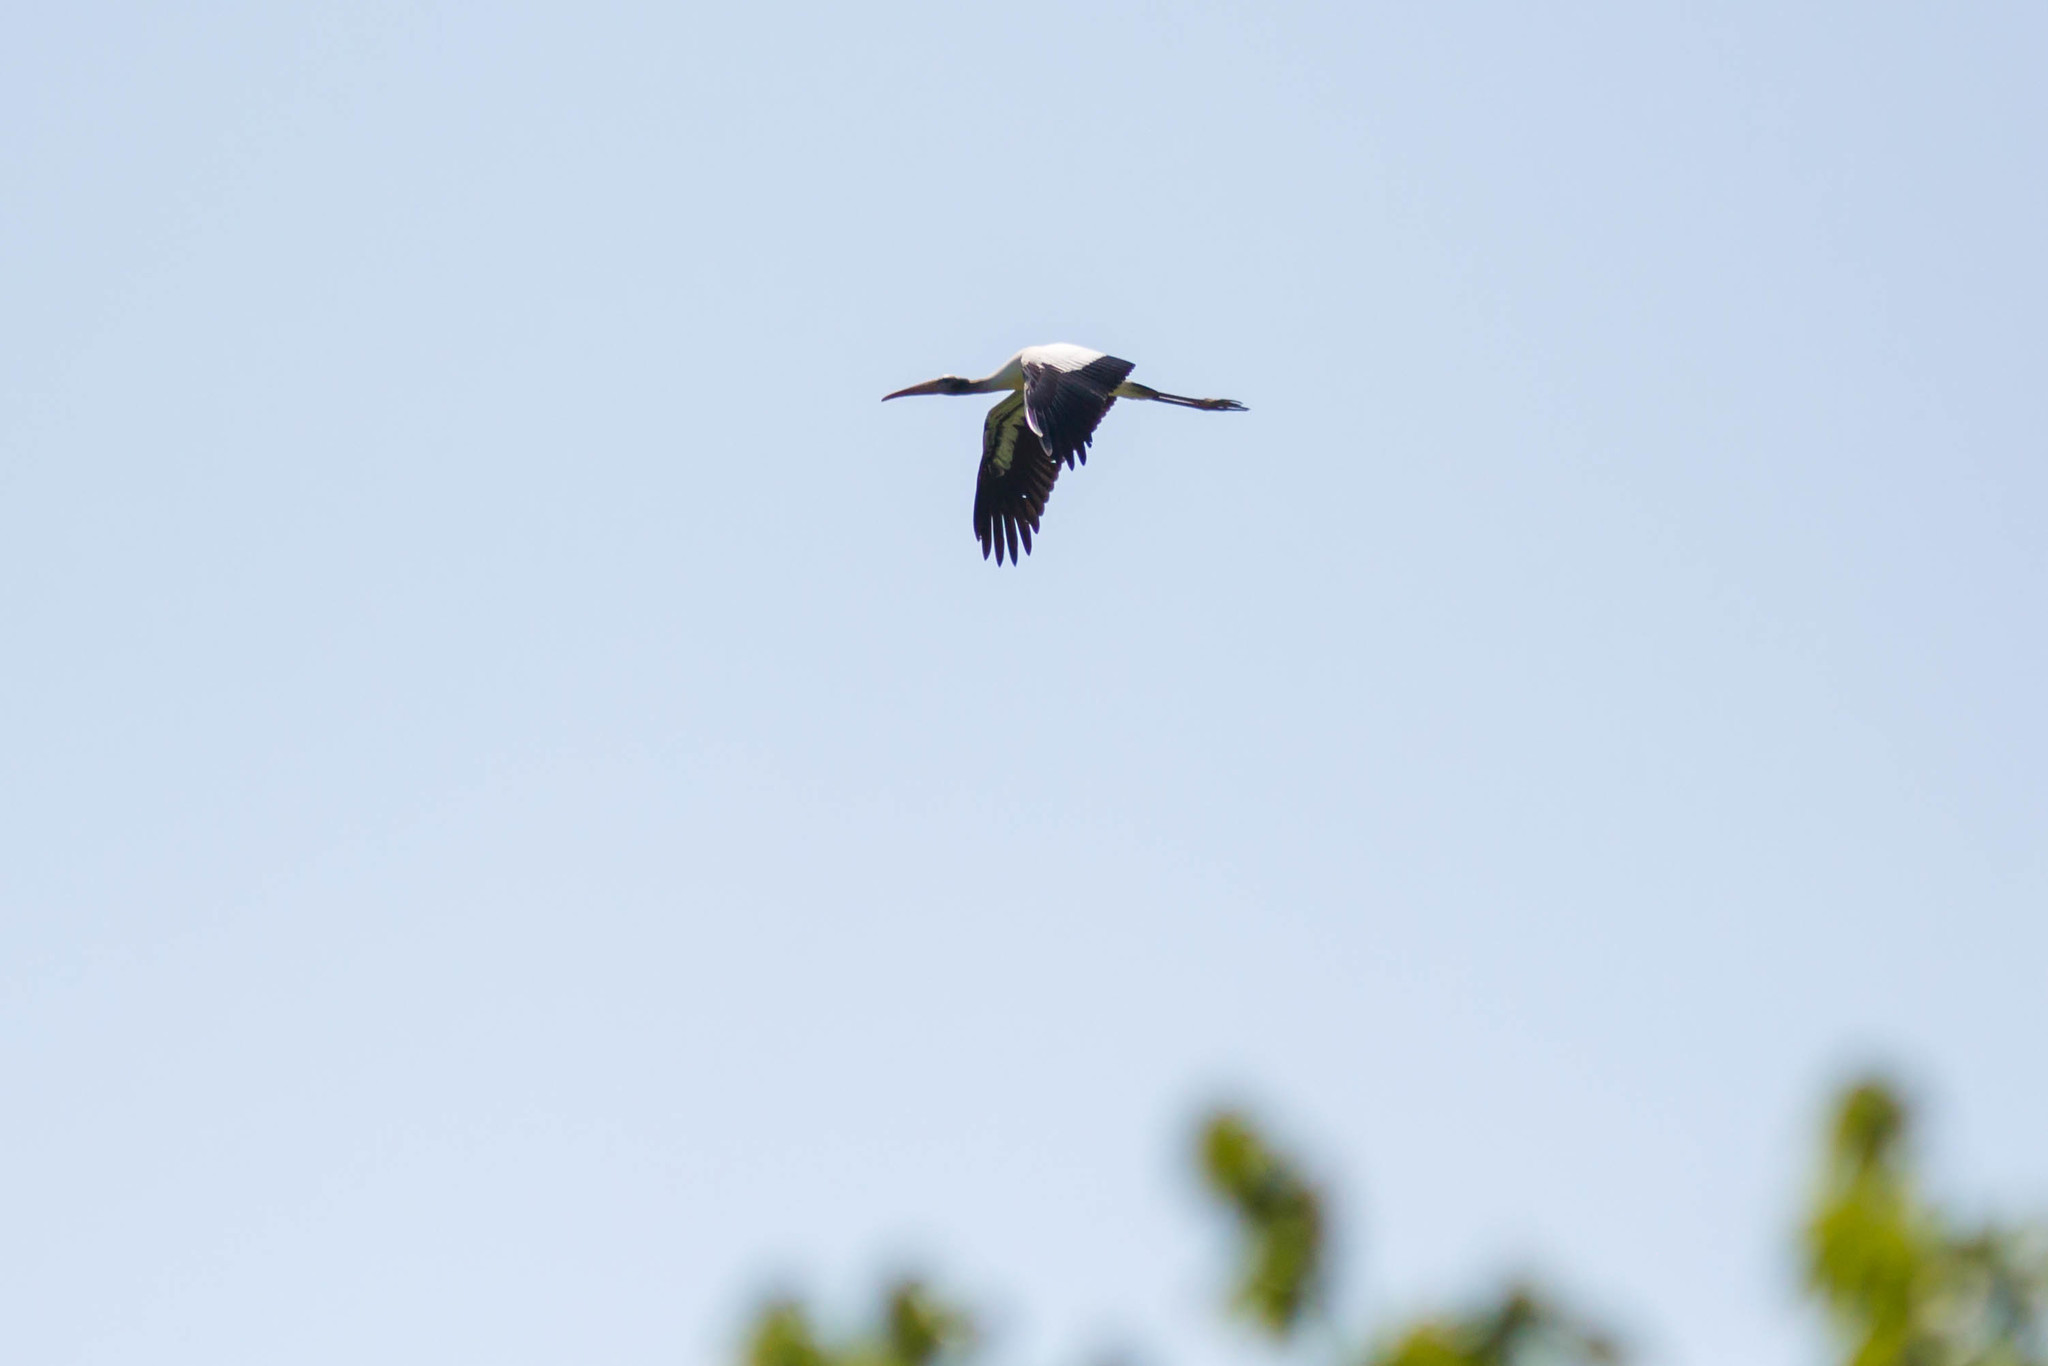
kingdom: Animalia
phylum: Chordata
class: Aves
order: Ciconiiformes
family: Ciconiidae
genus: Mycteria
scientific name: Mycteria americana
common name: Wood stork
